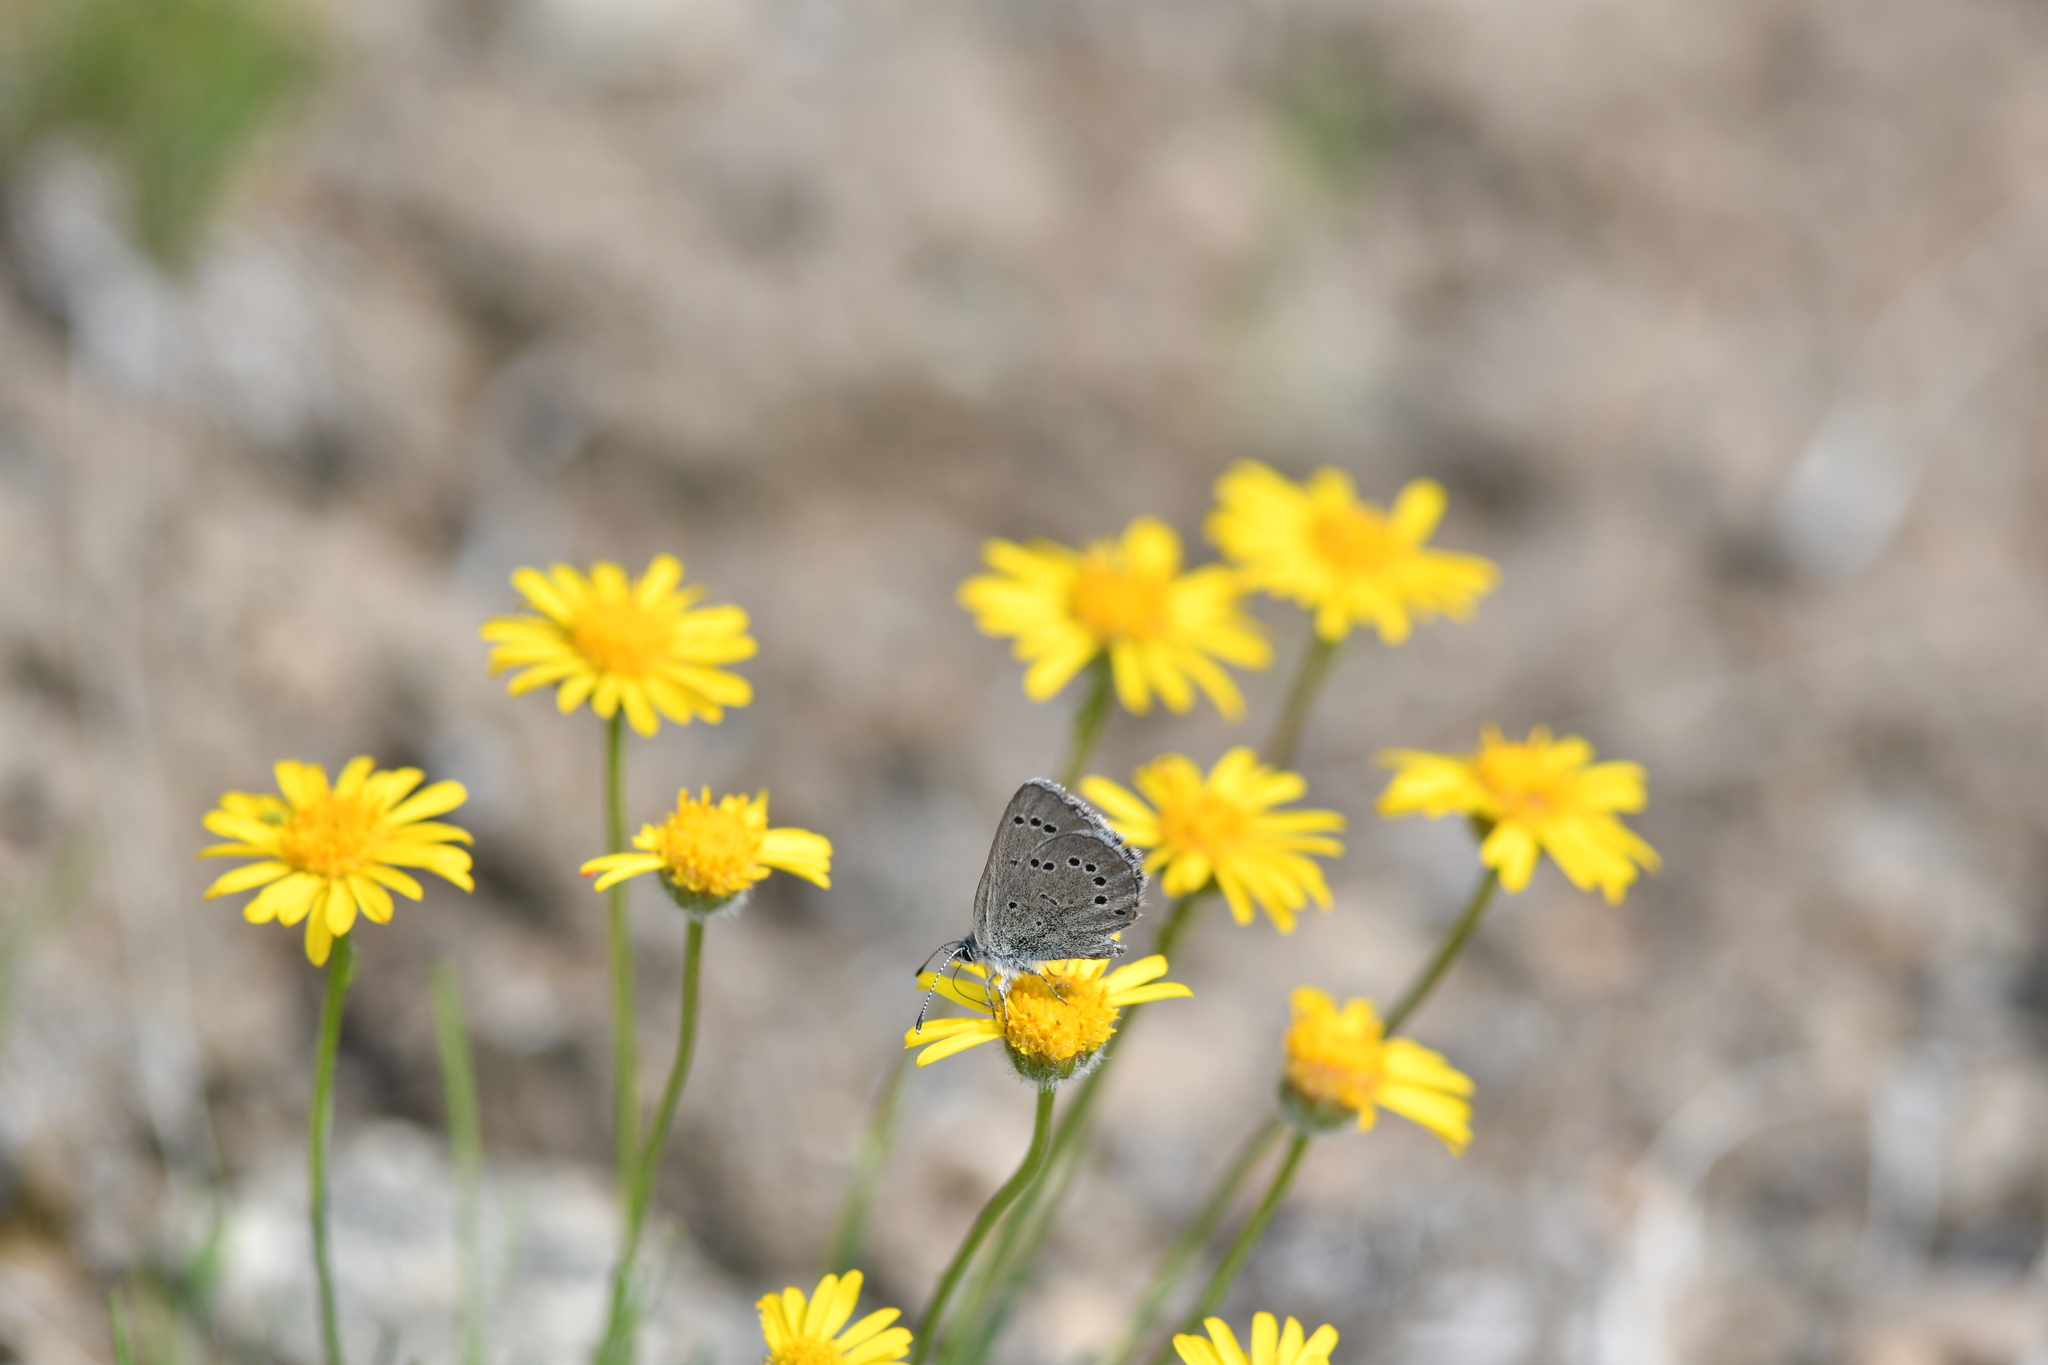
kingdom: Animalia
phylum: Arthropoda
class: Insecta
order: Lepidoptera
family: Lycaenidae
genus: Glaucopsyche
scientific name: Glaucopsyche lygdamus
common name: Silvery blue
